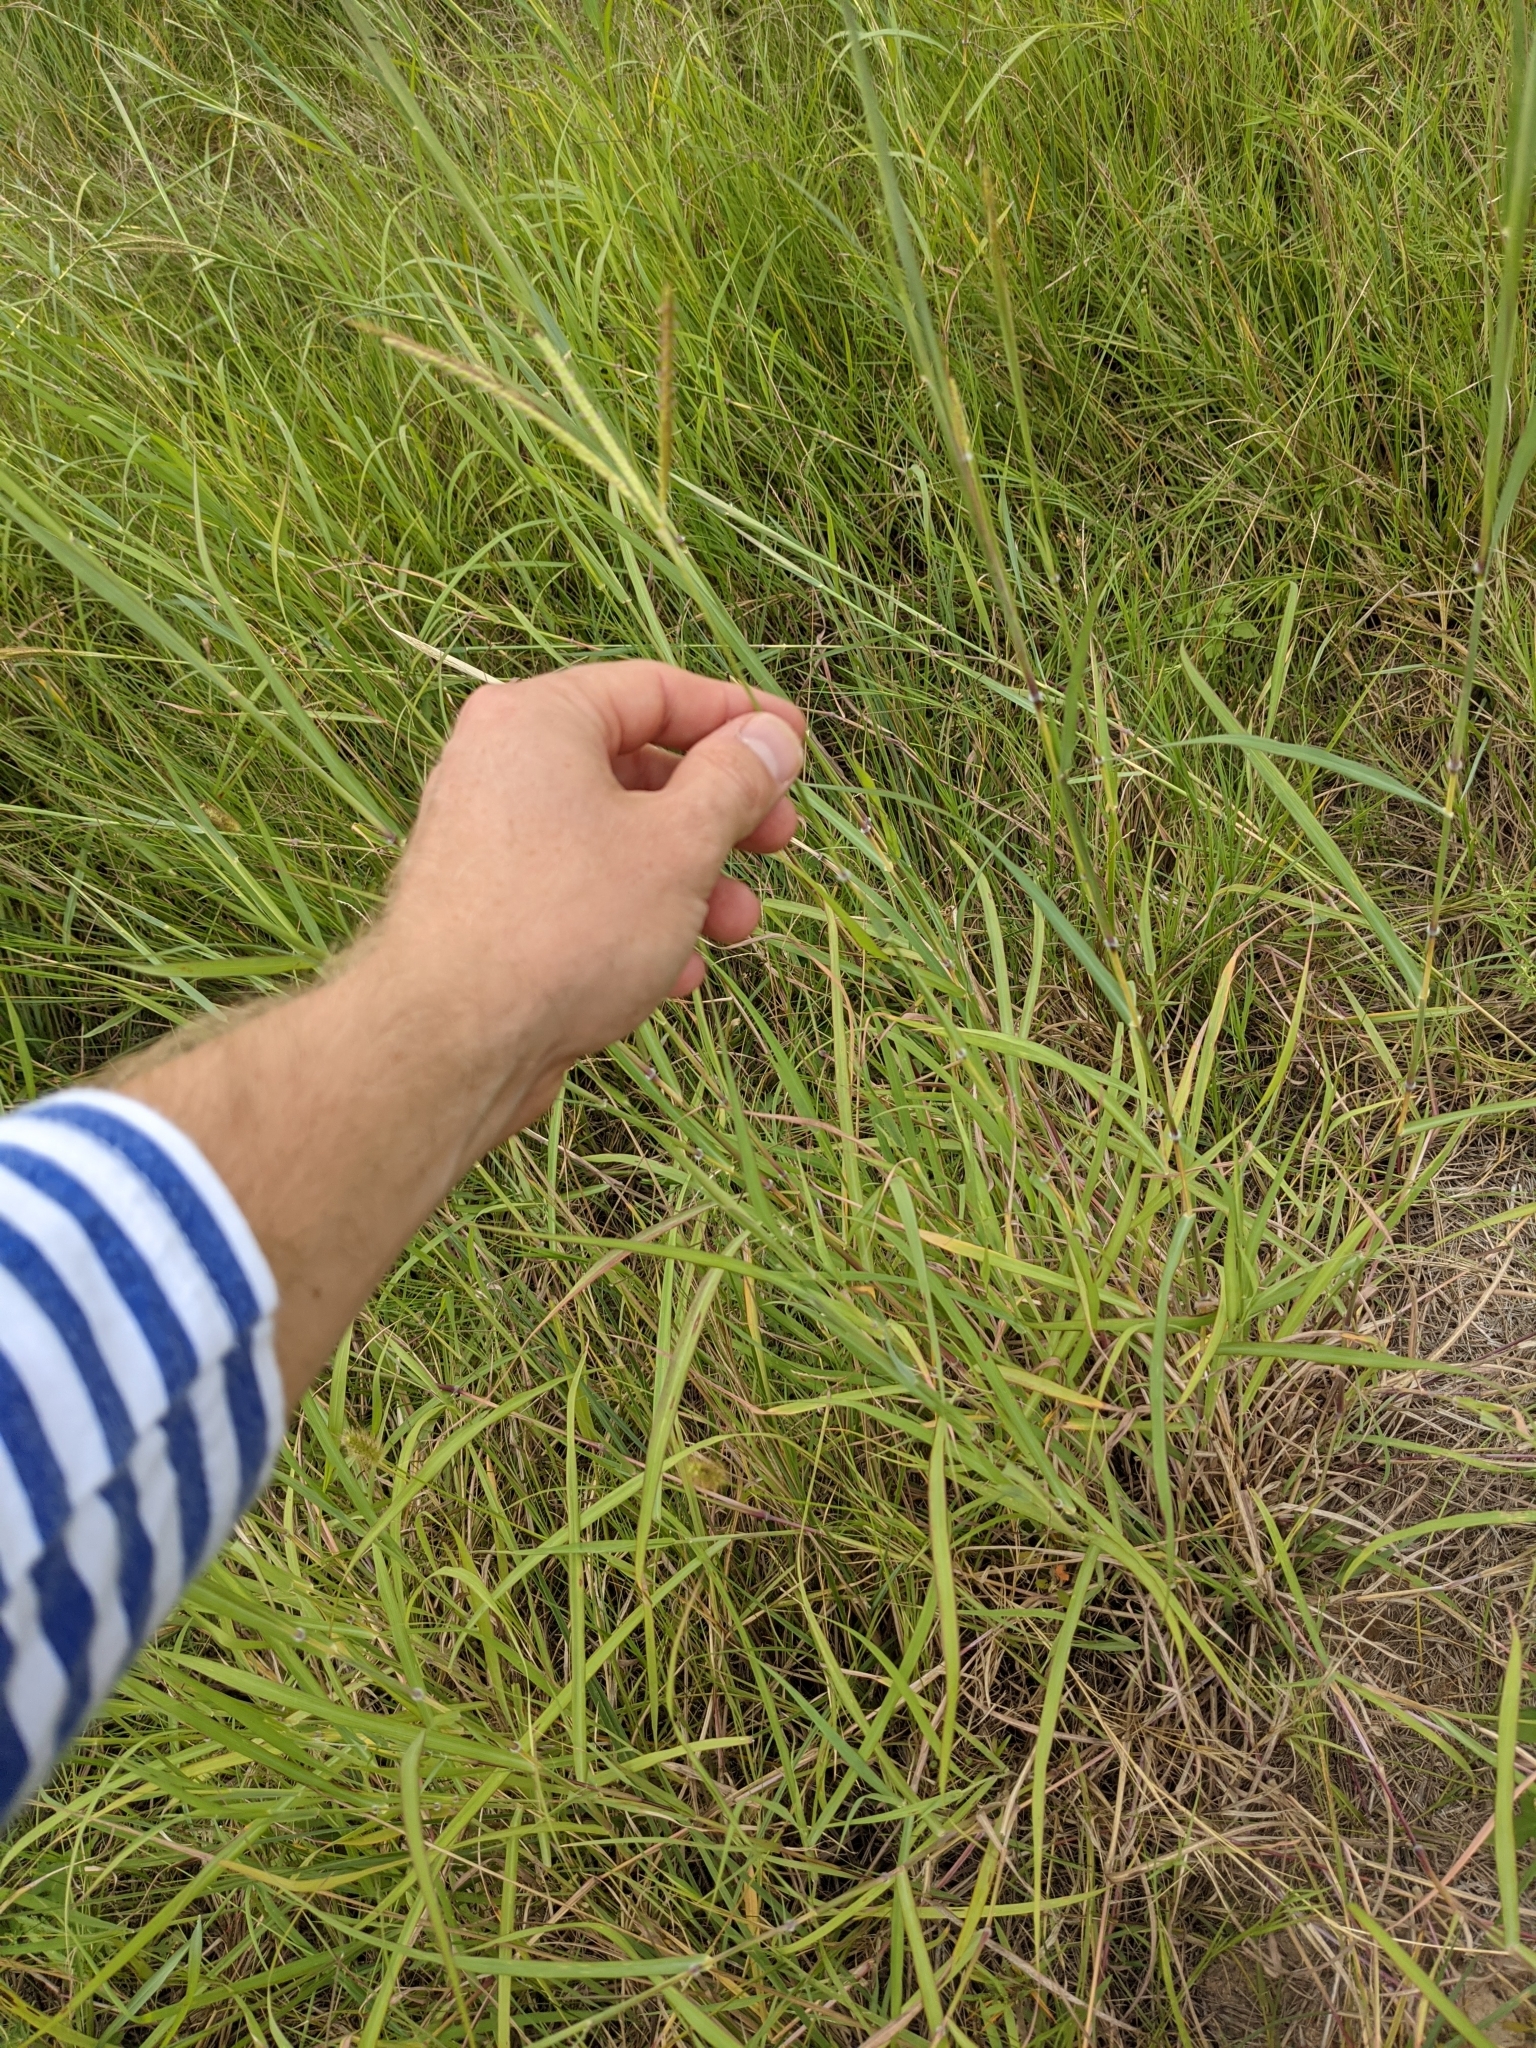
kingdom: Plantae
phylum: Tracheophyta
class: Liliopsida
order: Poales
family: Poaceae
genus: Dichanthium
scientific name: Dichanthium aristatum
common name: Angleton bluestem
